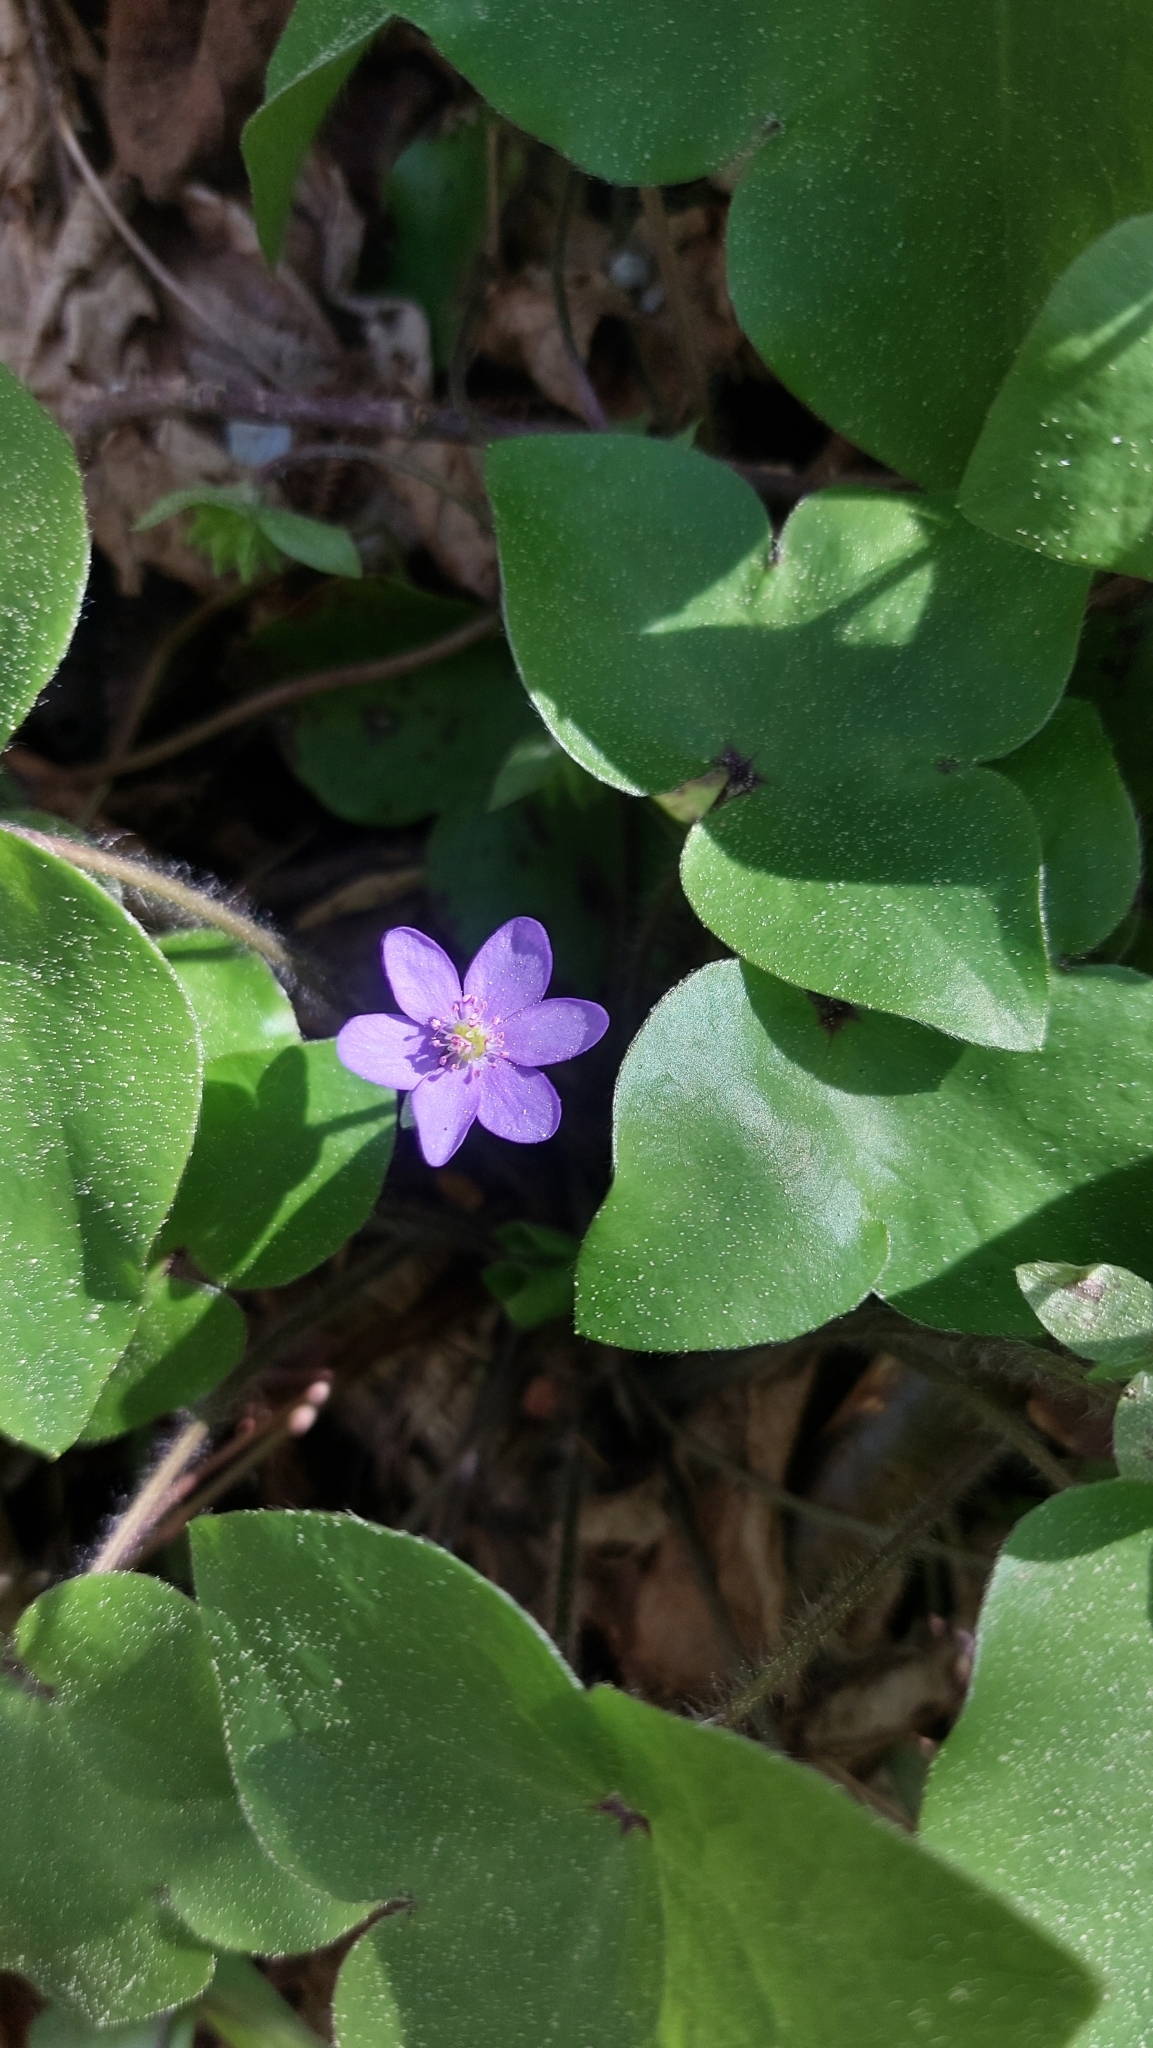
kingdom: Plantae
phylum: Tracheophyta
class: Magnoliopsida
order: Ranunculales
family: Ranunculaceae
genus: Hepatica
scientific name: Hepatica nobilis
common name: Liverleaf
